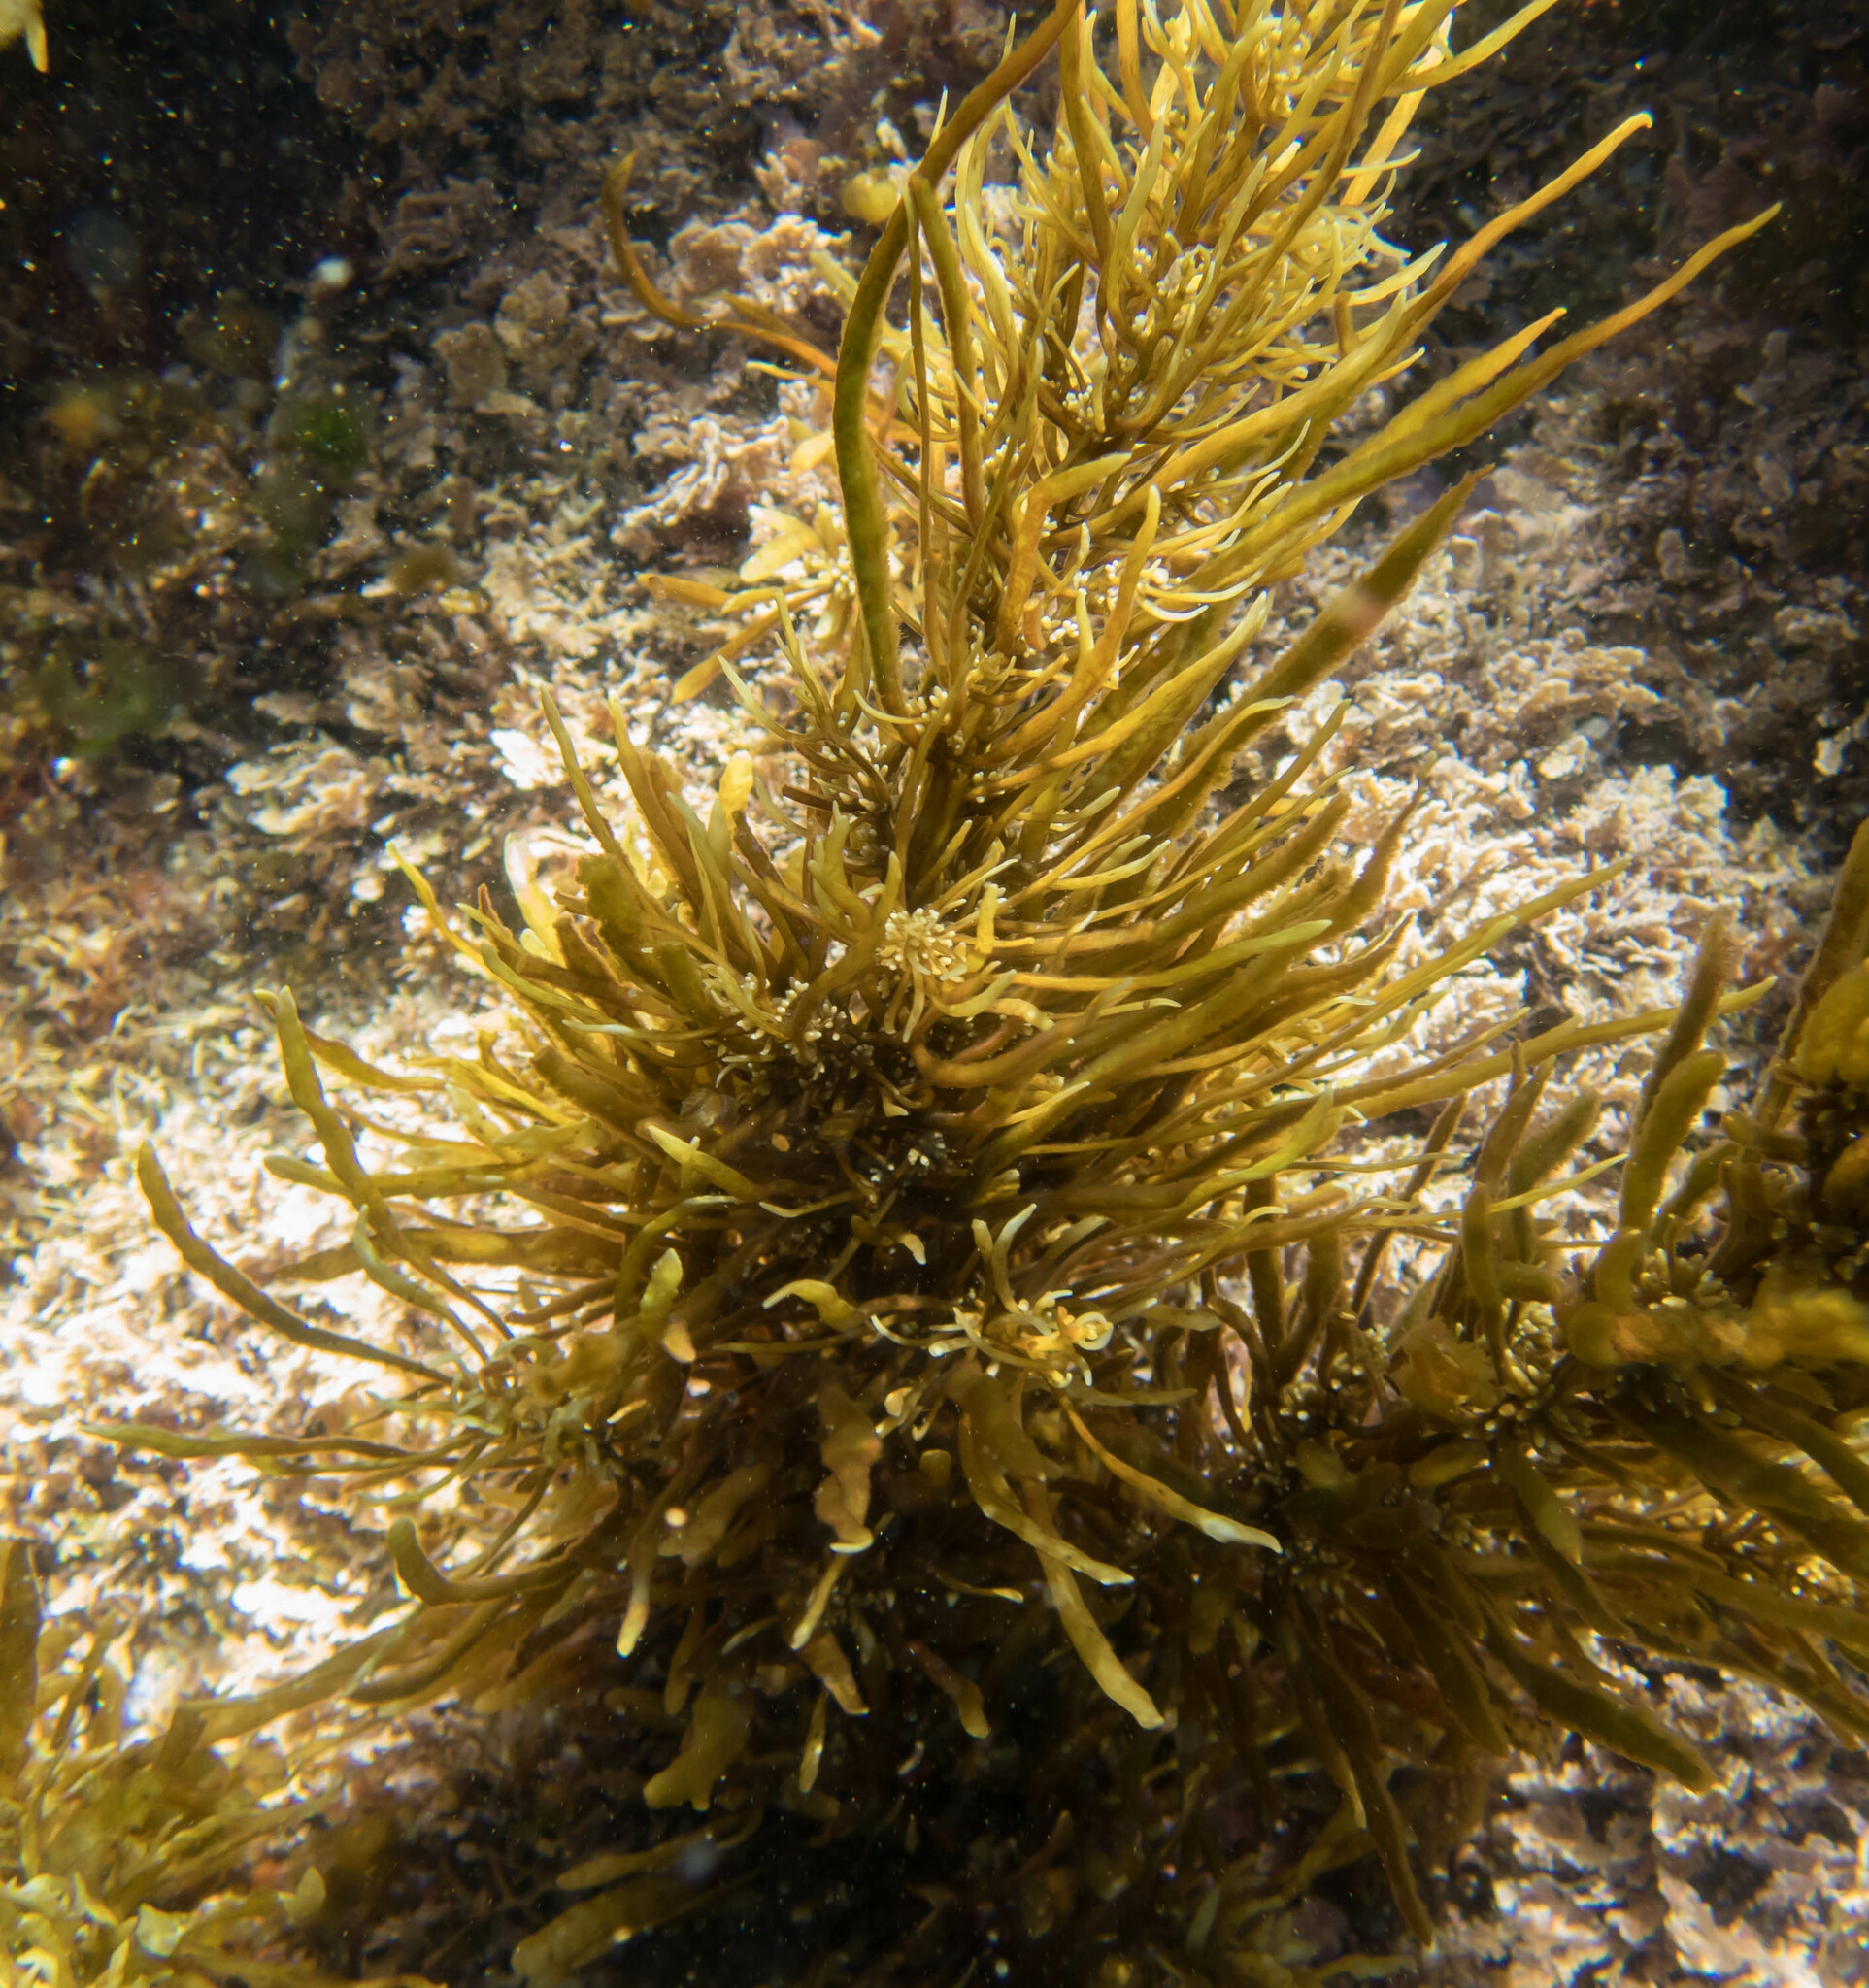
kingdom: Chromista
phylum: Ochrophyta
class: Phaeophyceae
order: Fucales
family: Sargassaceae
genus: Sargassum
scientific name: Sargassum linearifolium
